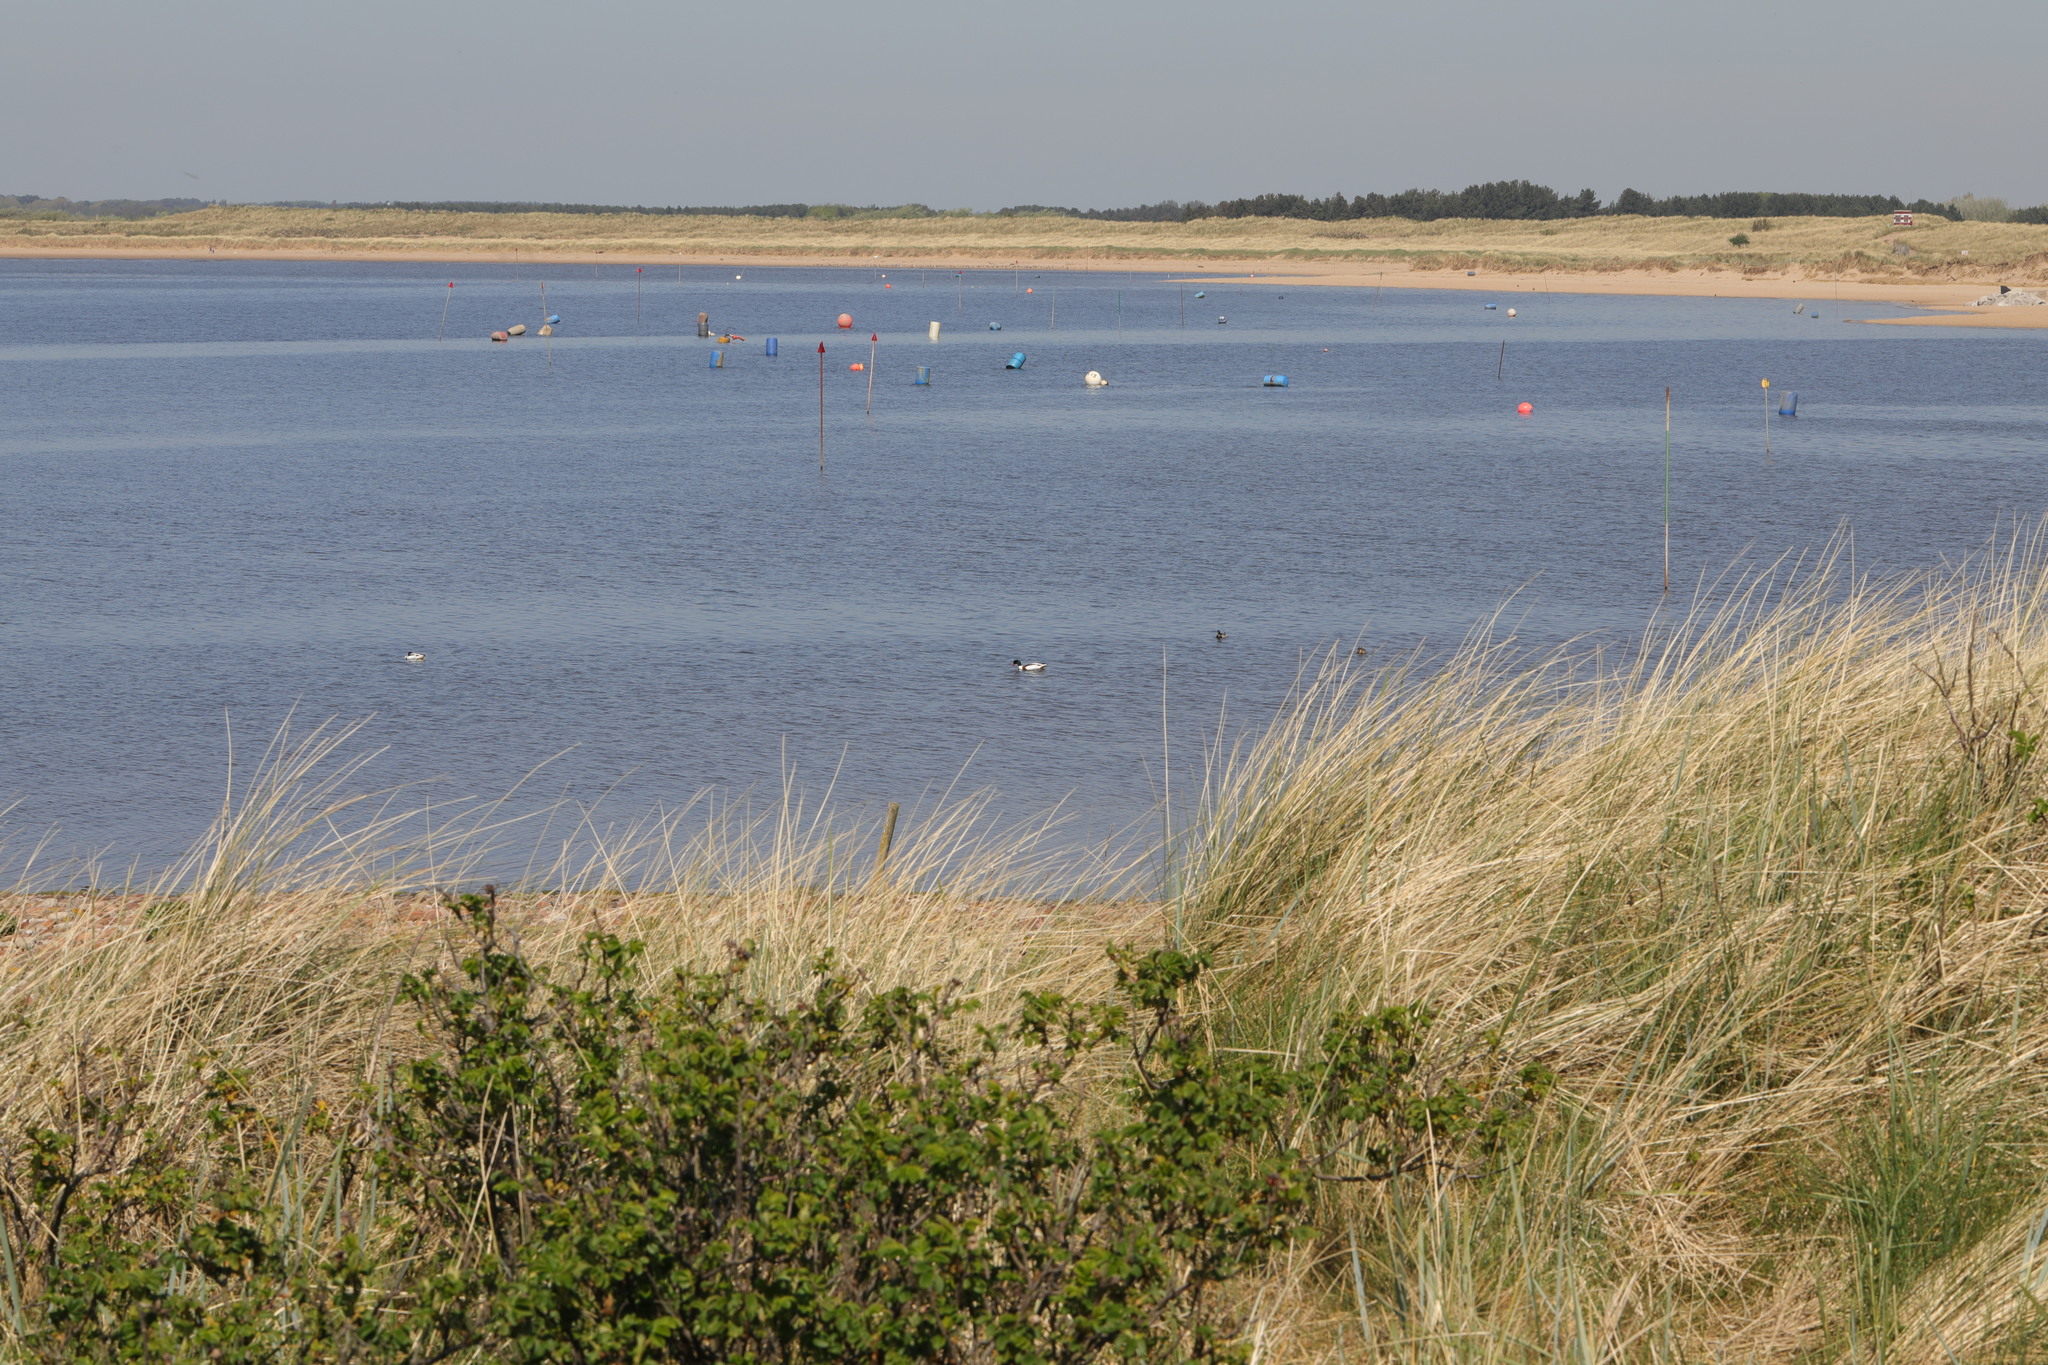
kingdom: Animalia
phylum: Chordata
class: Aves
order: Anseriformes
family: Anatidae
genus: Tadorna
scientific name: Tadorna tadorna
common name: Common shelduck
